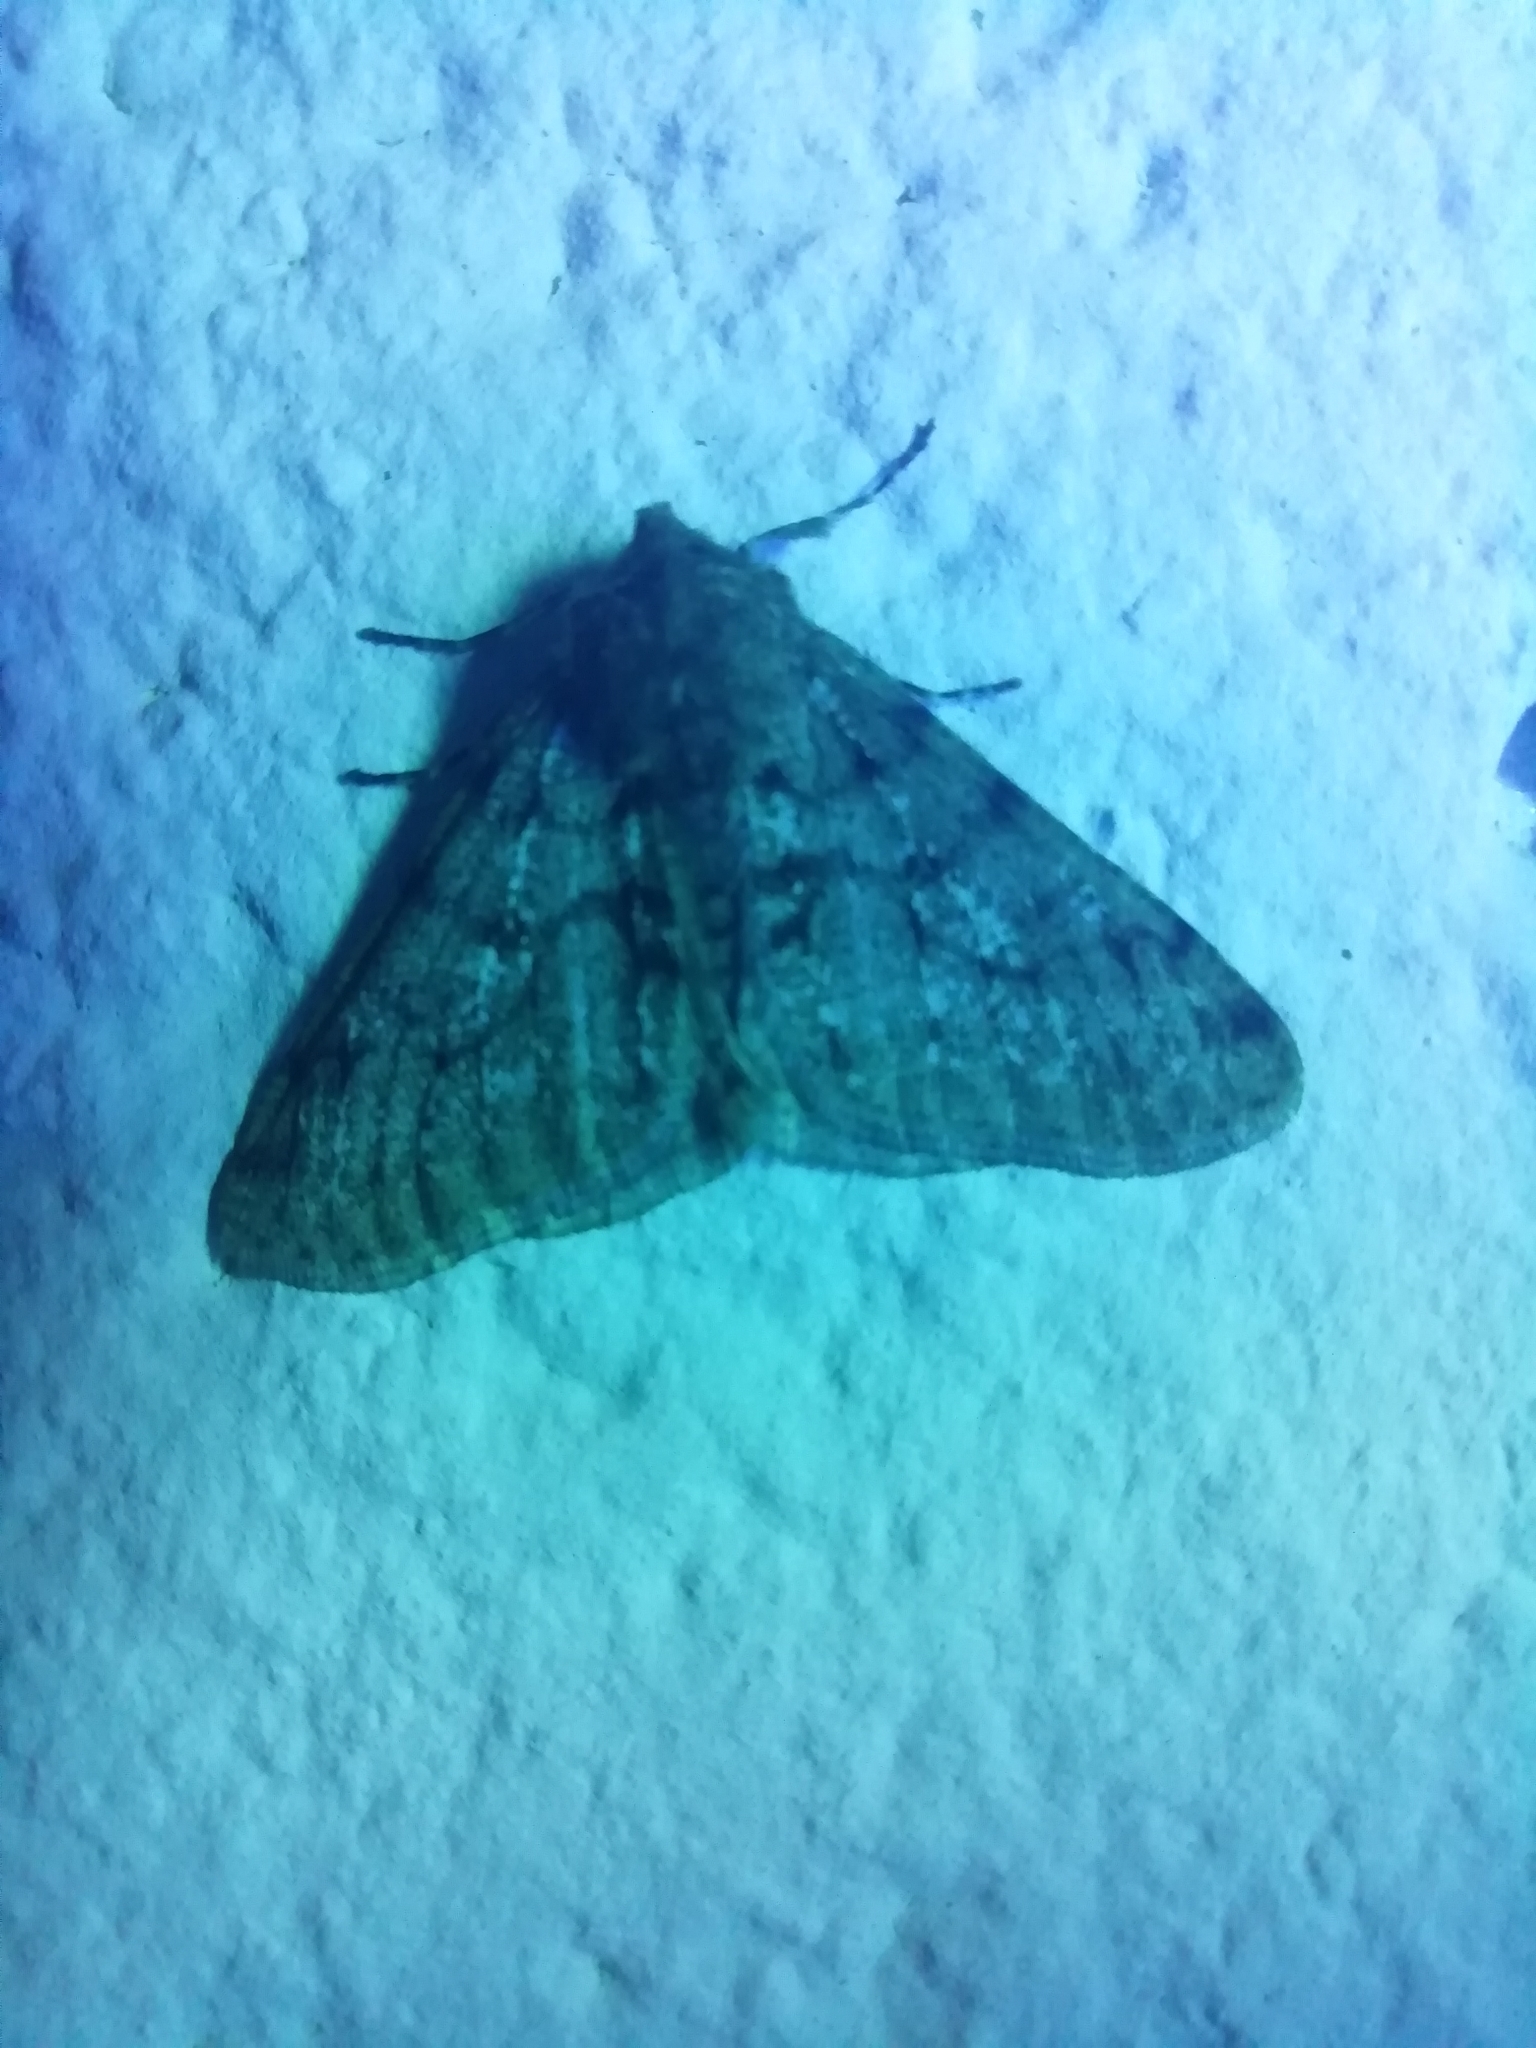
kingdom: Animalia
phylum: Arthropoda
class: Insecta
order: Lepidoptera
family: Geometridae
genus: Phigalia
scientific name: Phigalia pilosaria
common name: Pale brindled beauty
